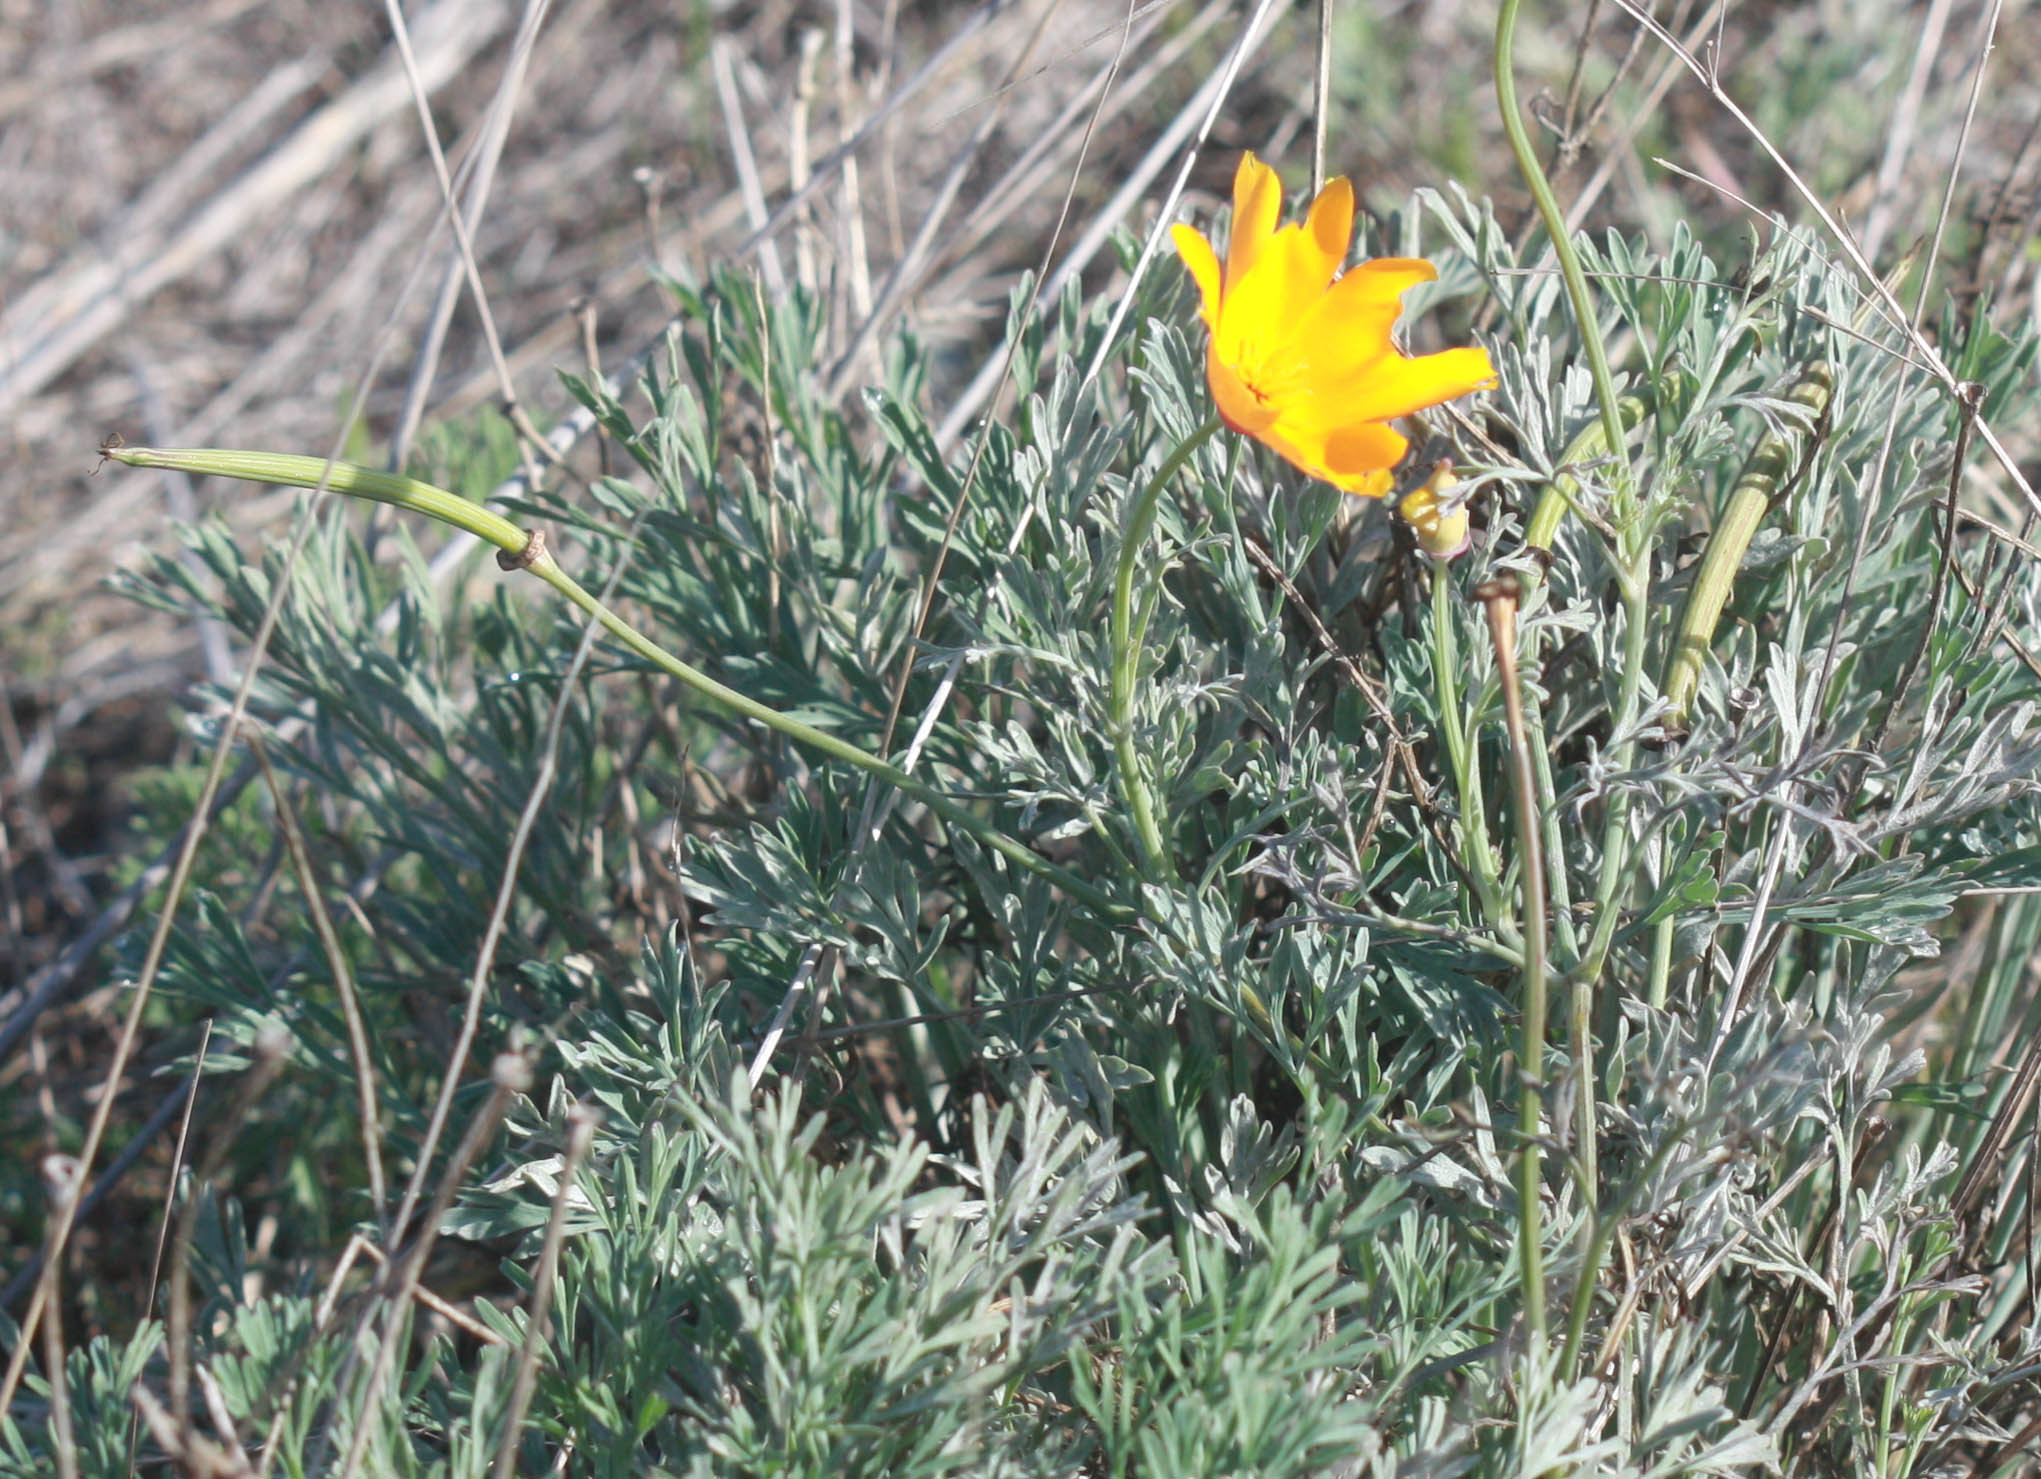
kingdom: Plantae
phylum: Tracheophyta
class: Magnoliopsida
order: Ranunculales
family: Papaveraceae
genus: Eschscholzia
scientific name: Eschscholzia californica
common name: California poppy
